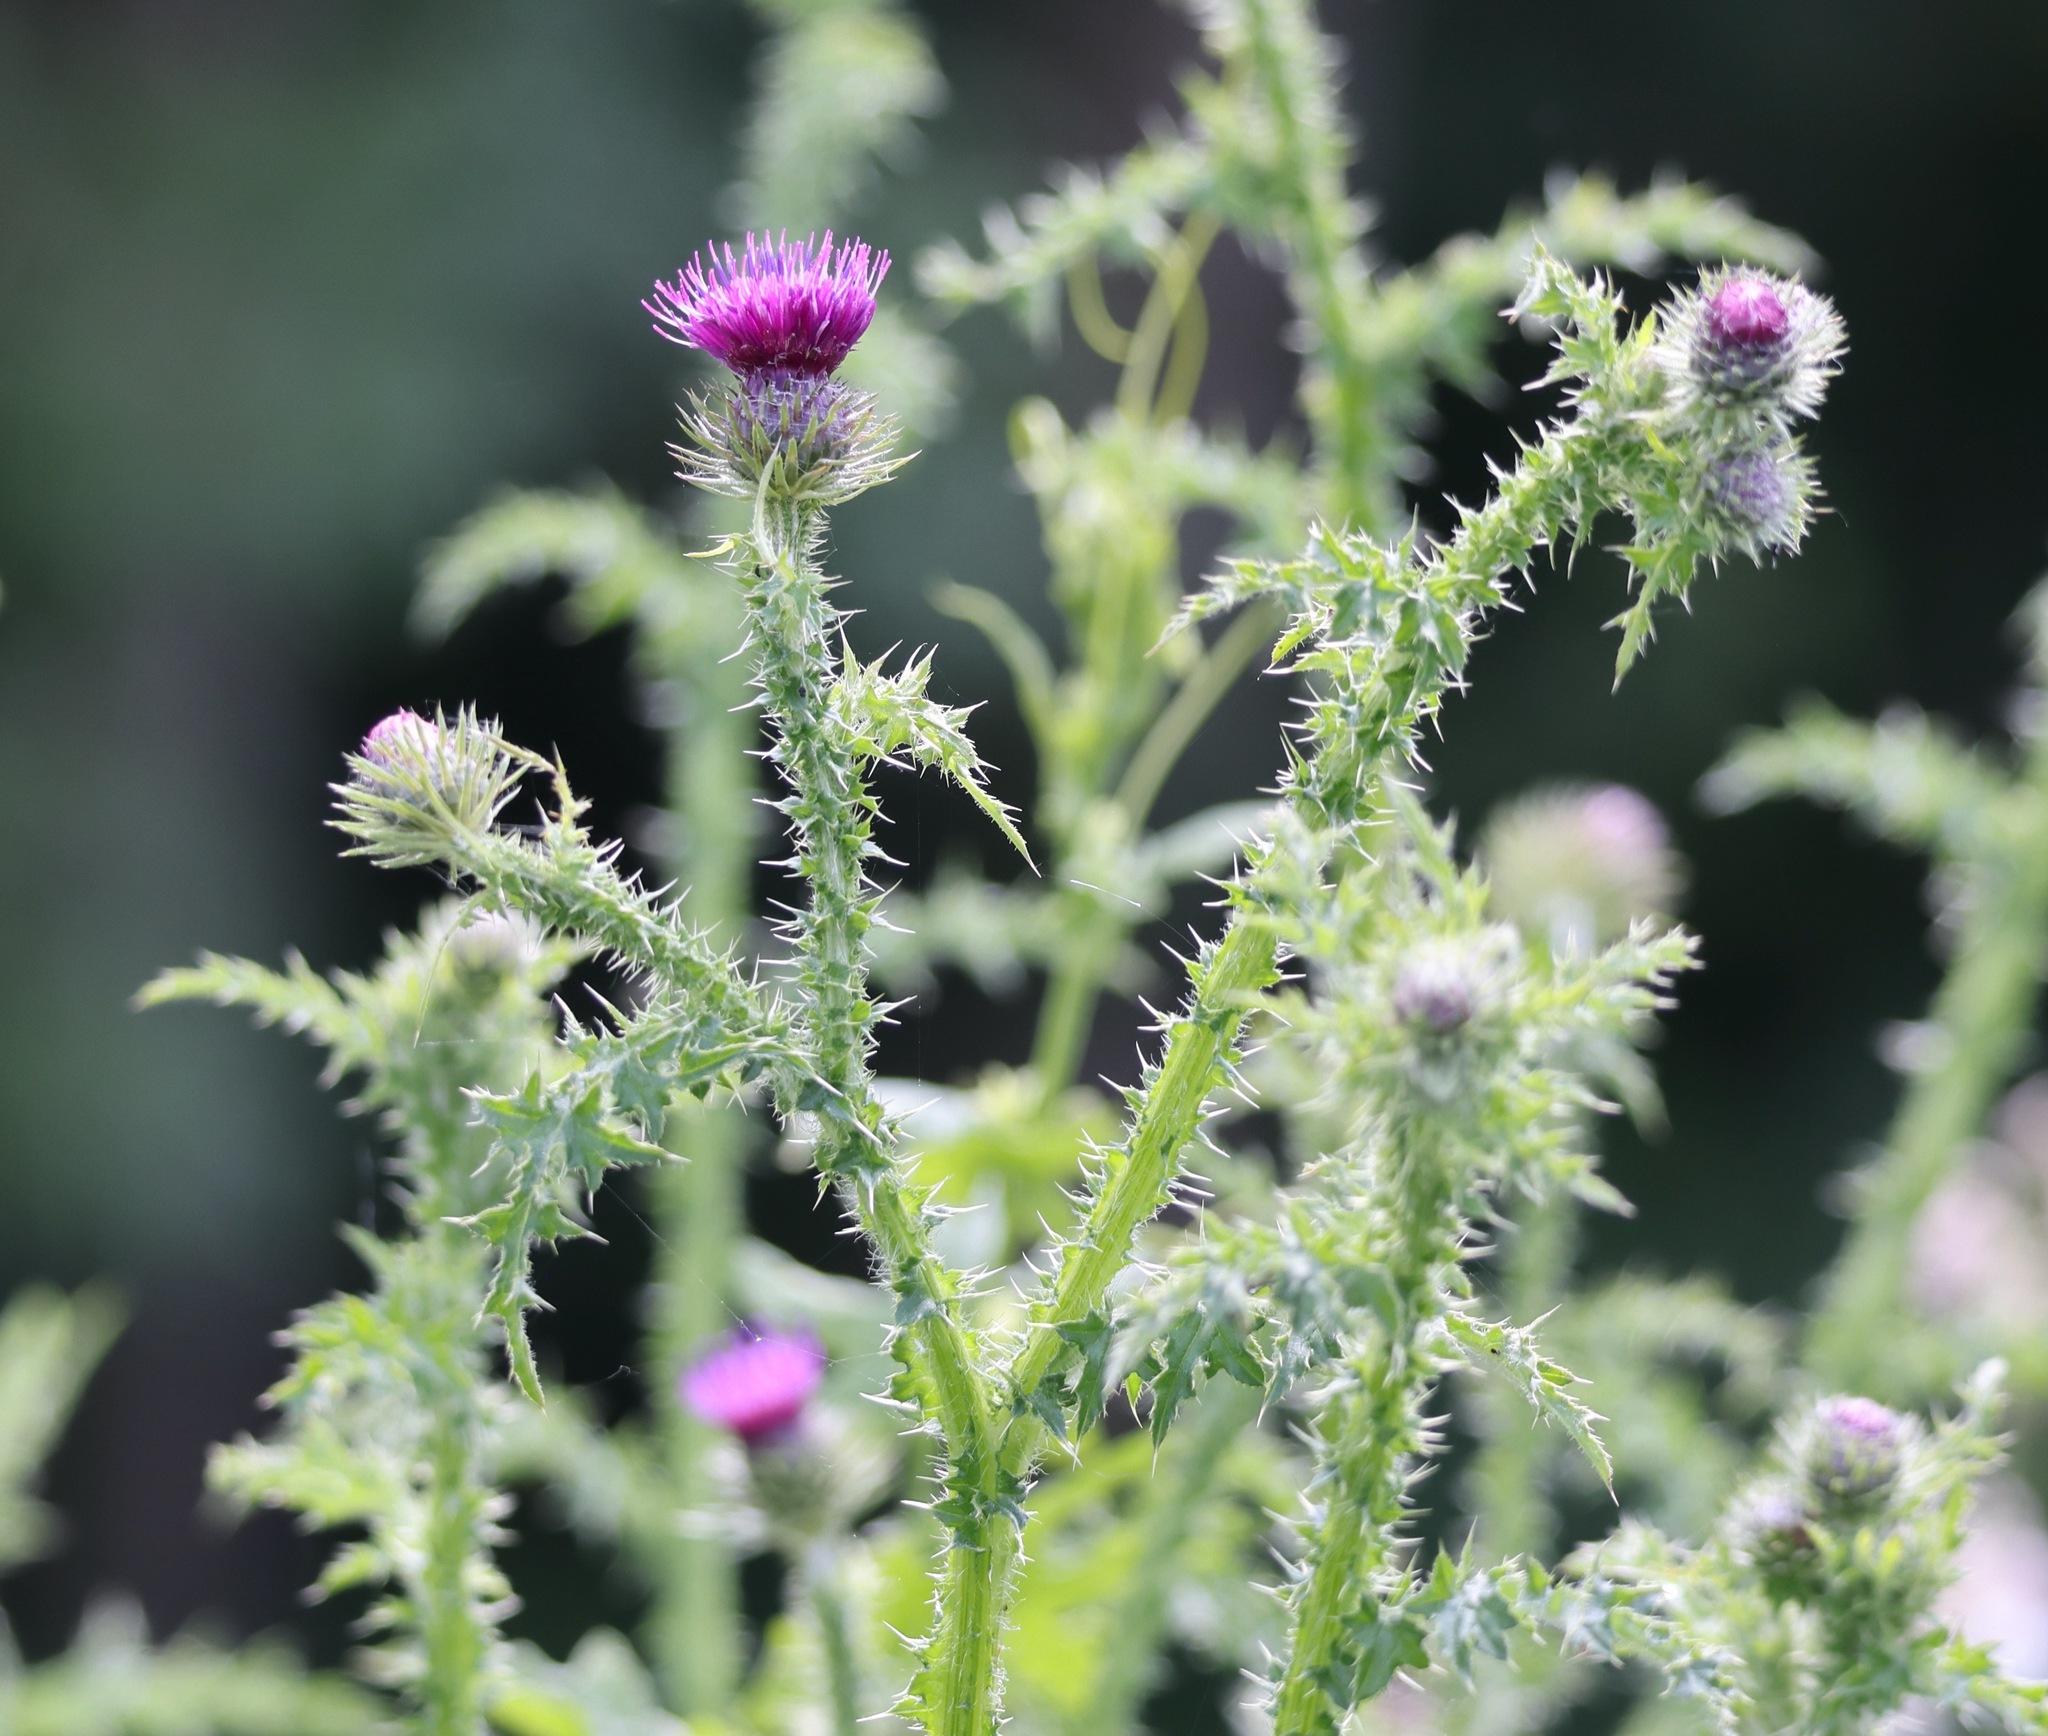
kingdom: Plantae
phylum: Tracheophyta
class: Magnoliopsida
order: Asterales
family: Asteraceae
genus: Carduus
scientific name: Carduus crispus
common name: Welted thistle
